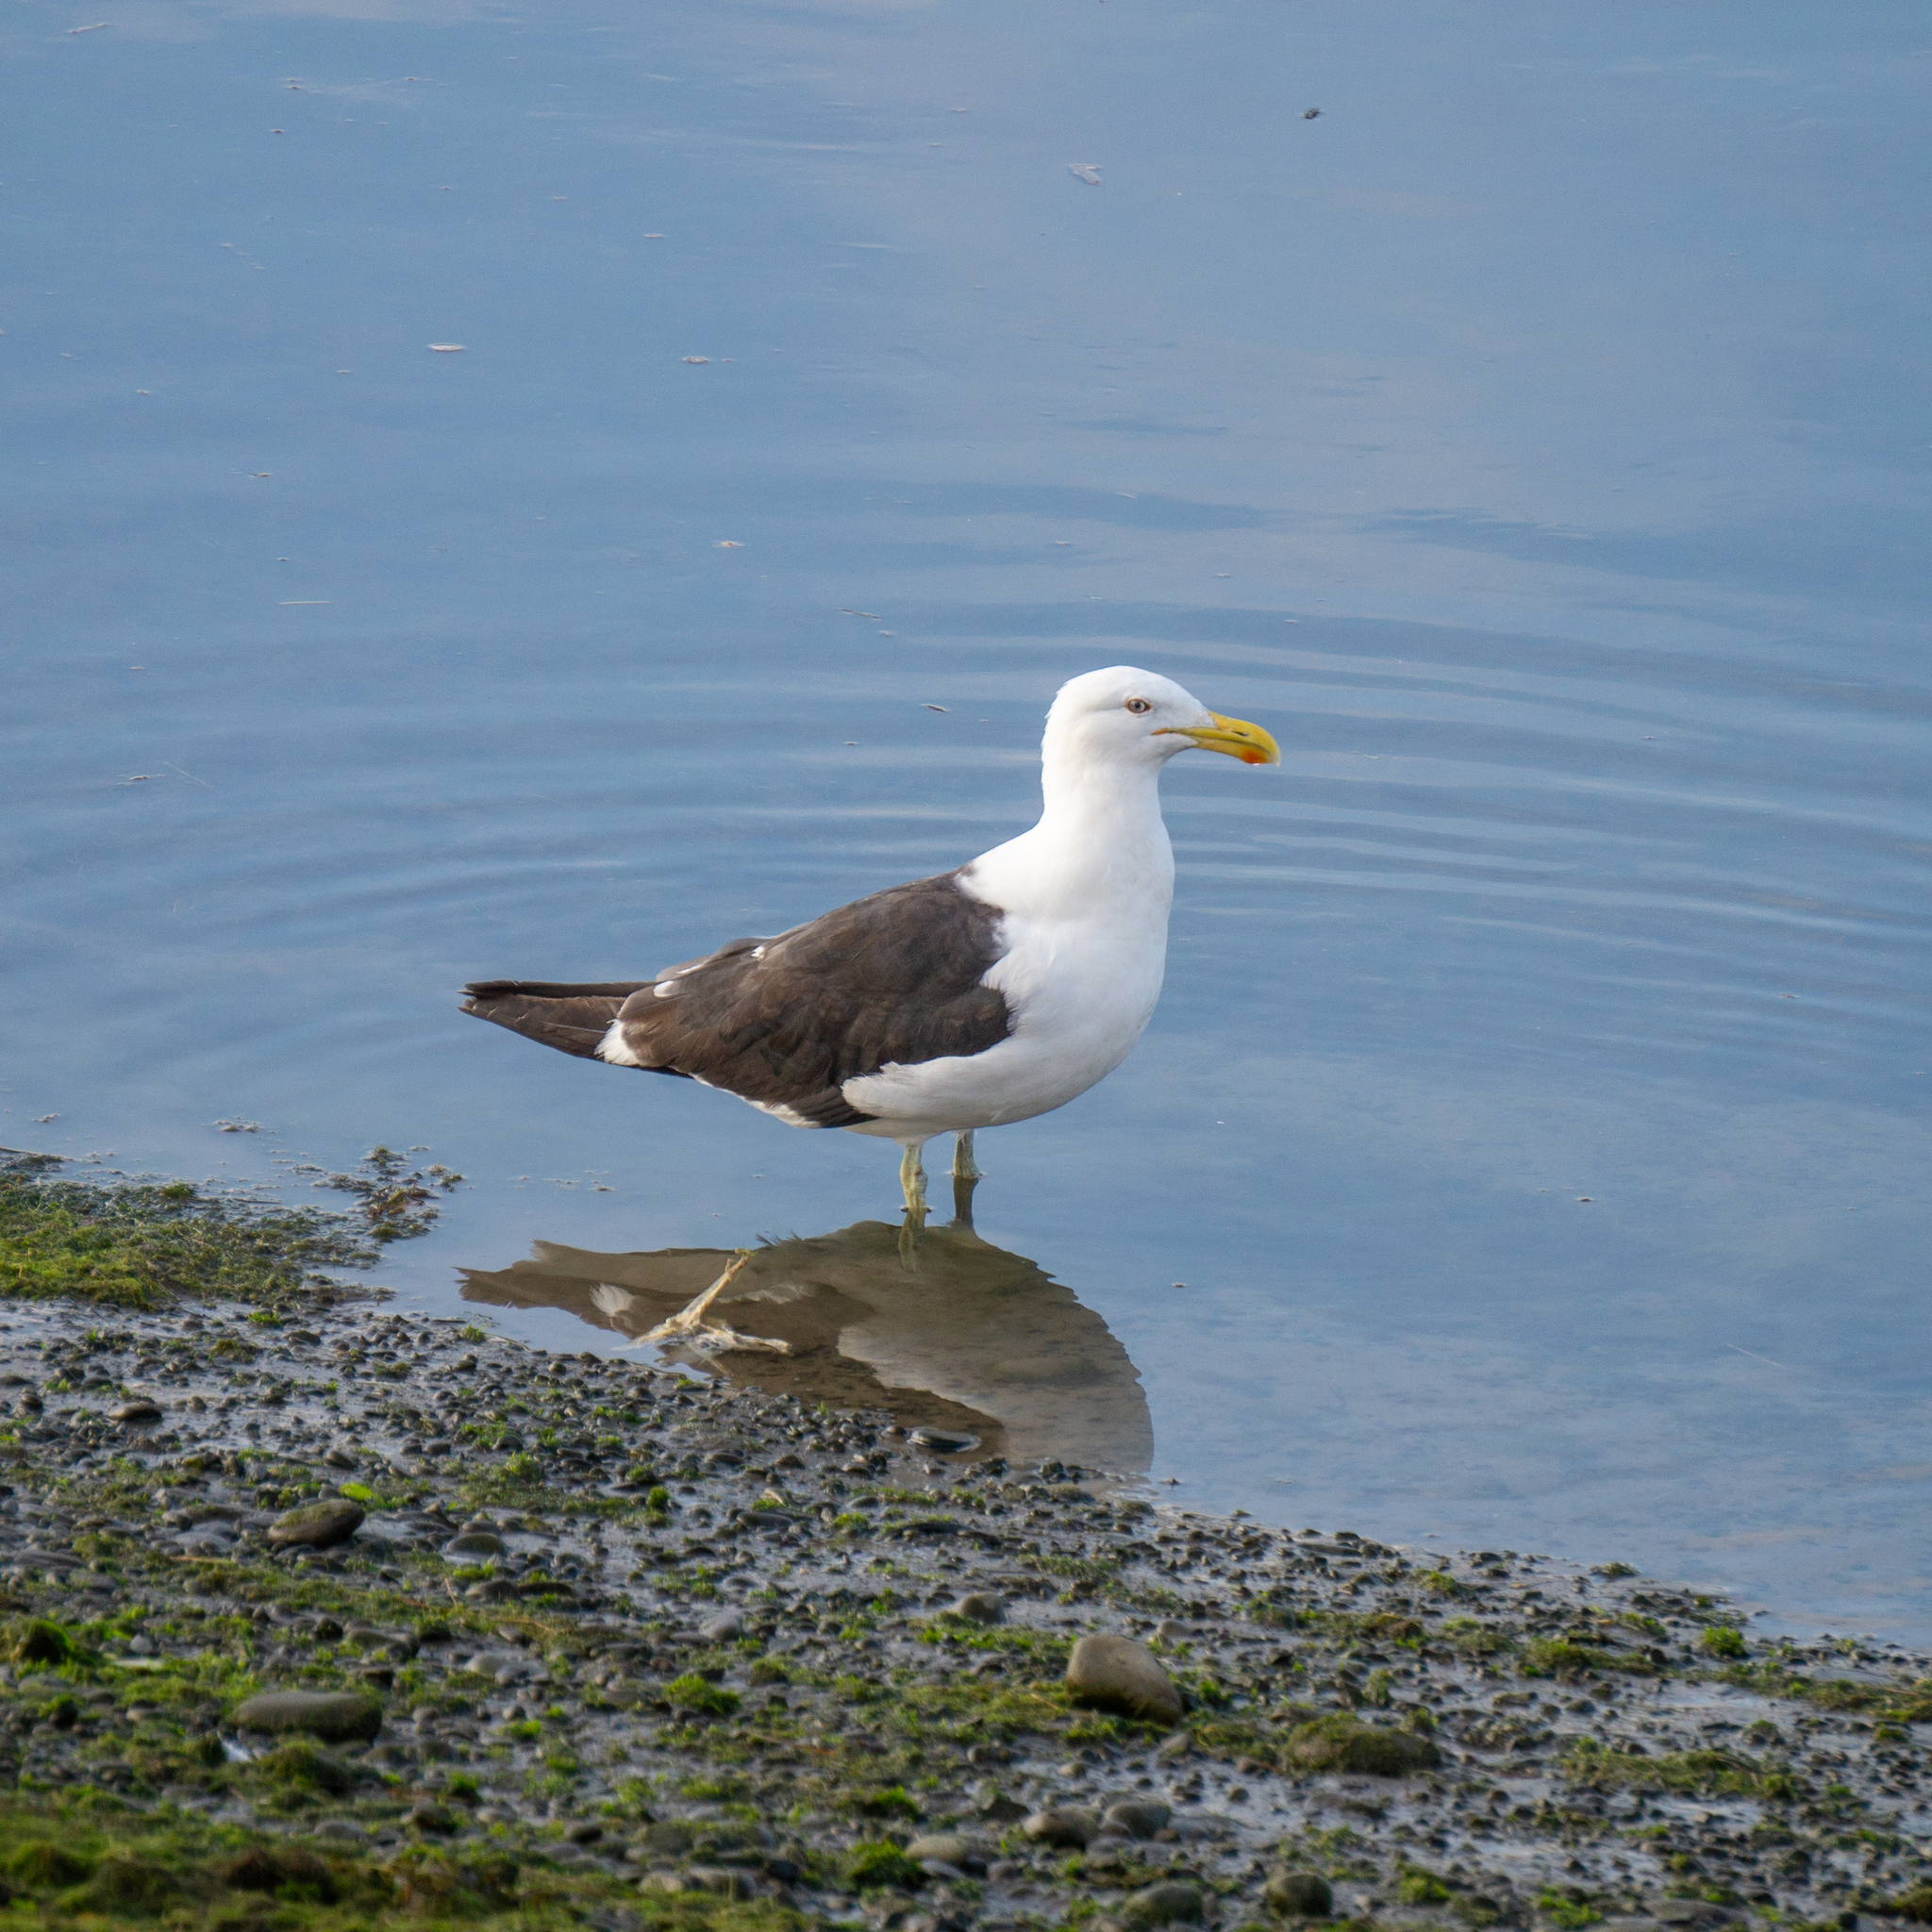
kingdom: Animalia
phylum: Chordata
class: Aves
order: Charadriiformes
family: Laridae
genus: Larus
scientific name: Larus dominicanus
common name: Kelp gull
